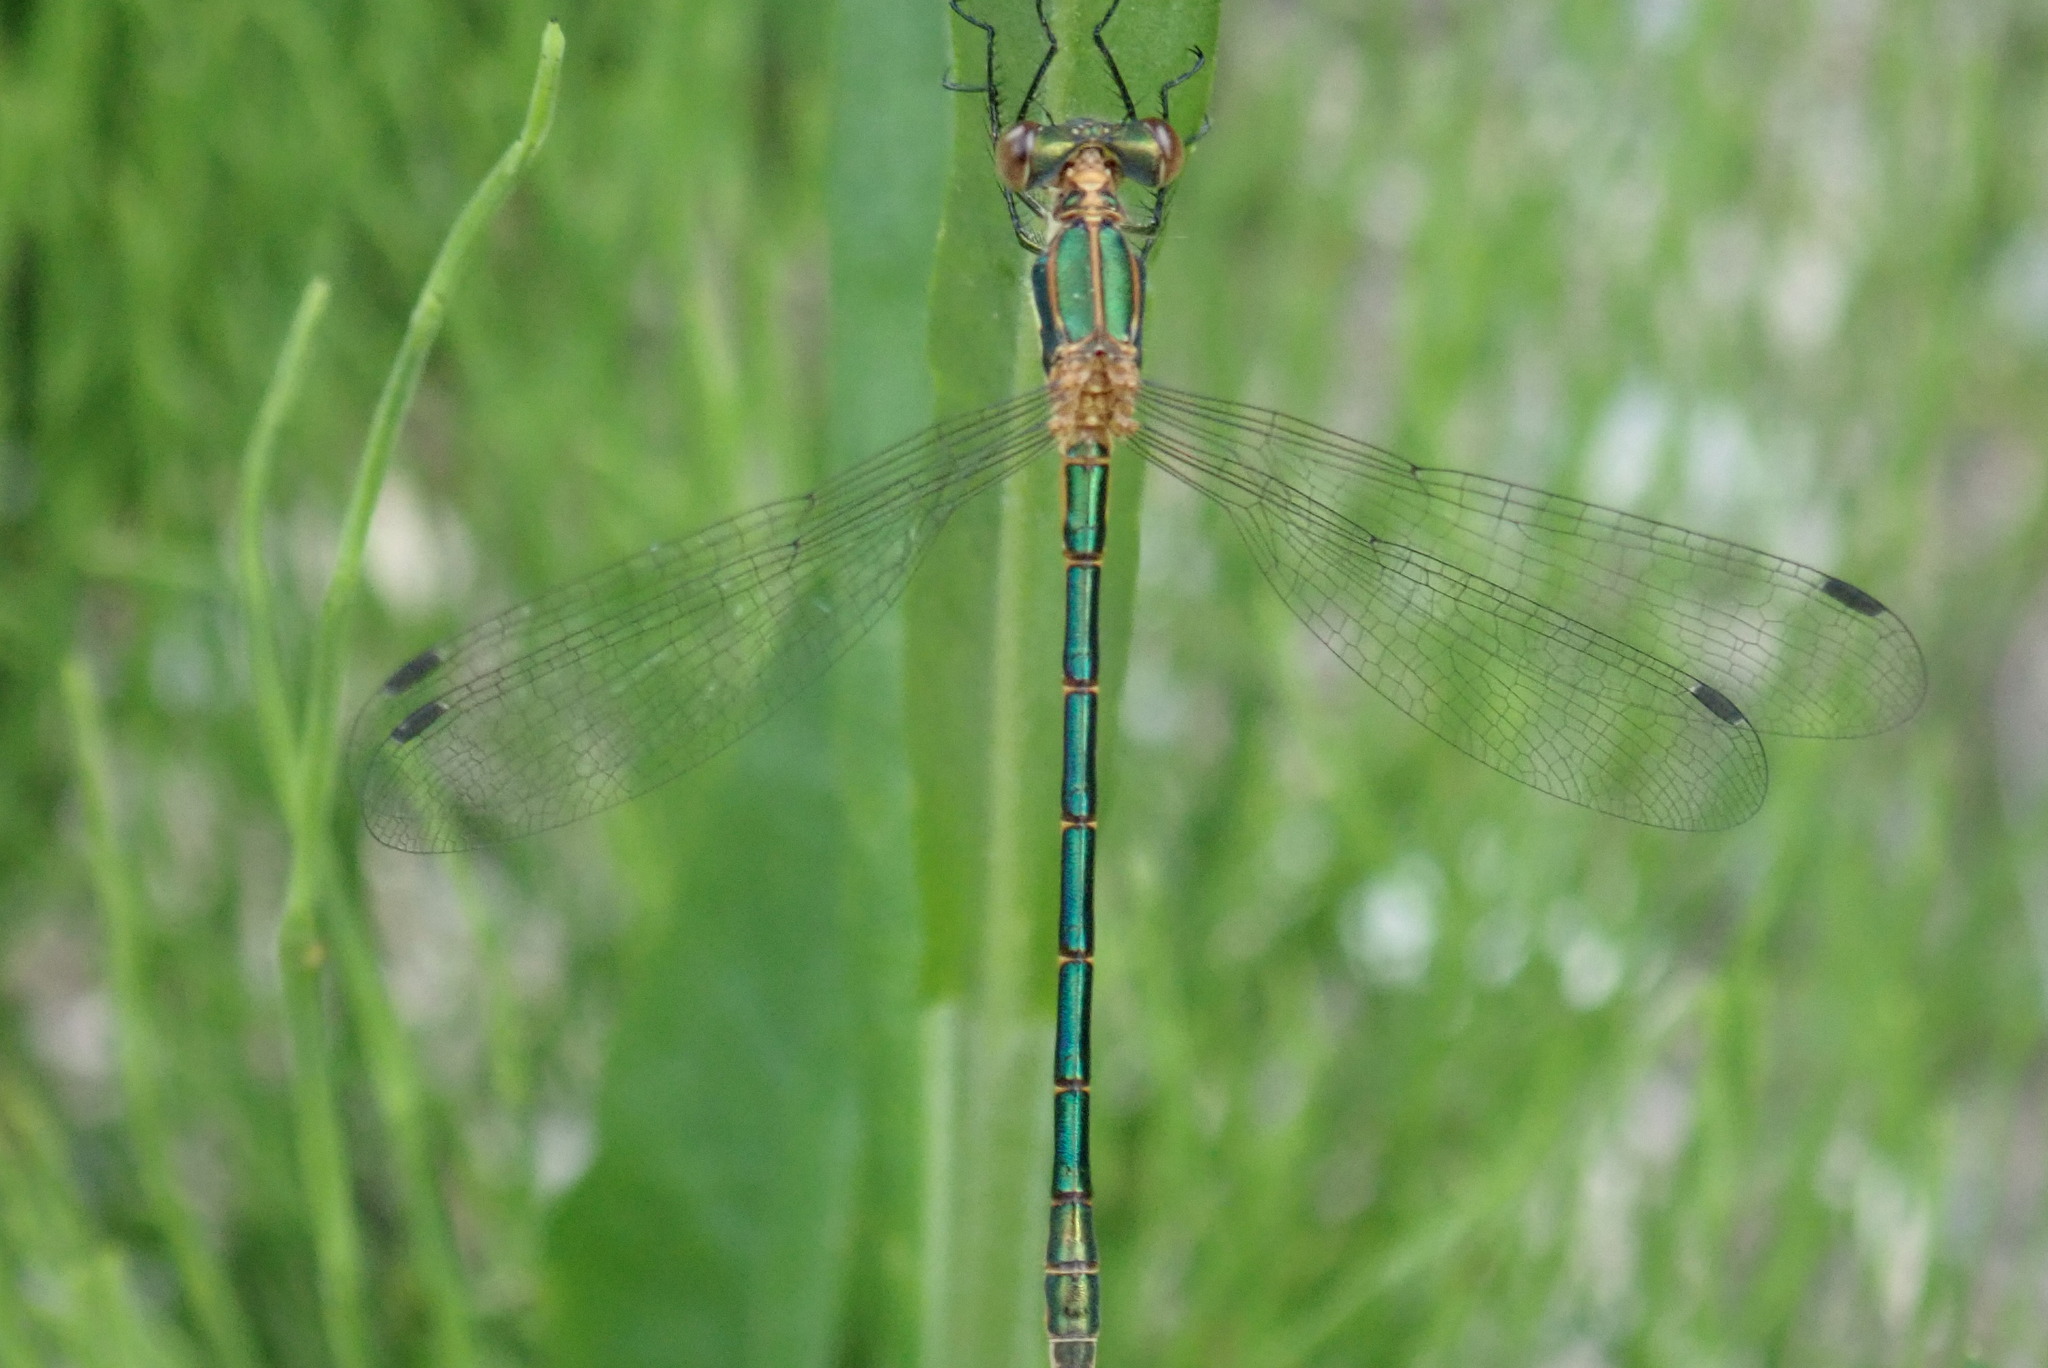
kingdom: Animalia
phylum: Arthropoda
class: Insecta
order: Odonata
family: Lestidae
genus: Lestes
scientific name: Lestes dryas
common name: Scarce emerald damselfly
